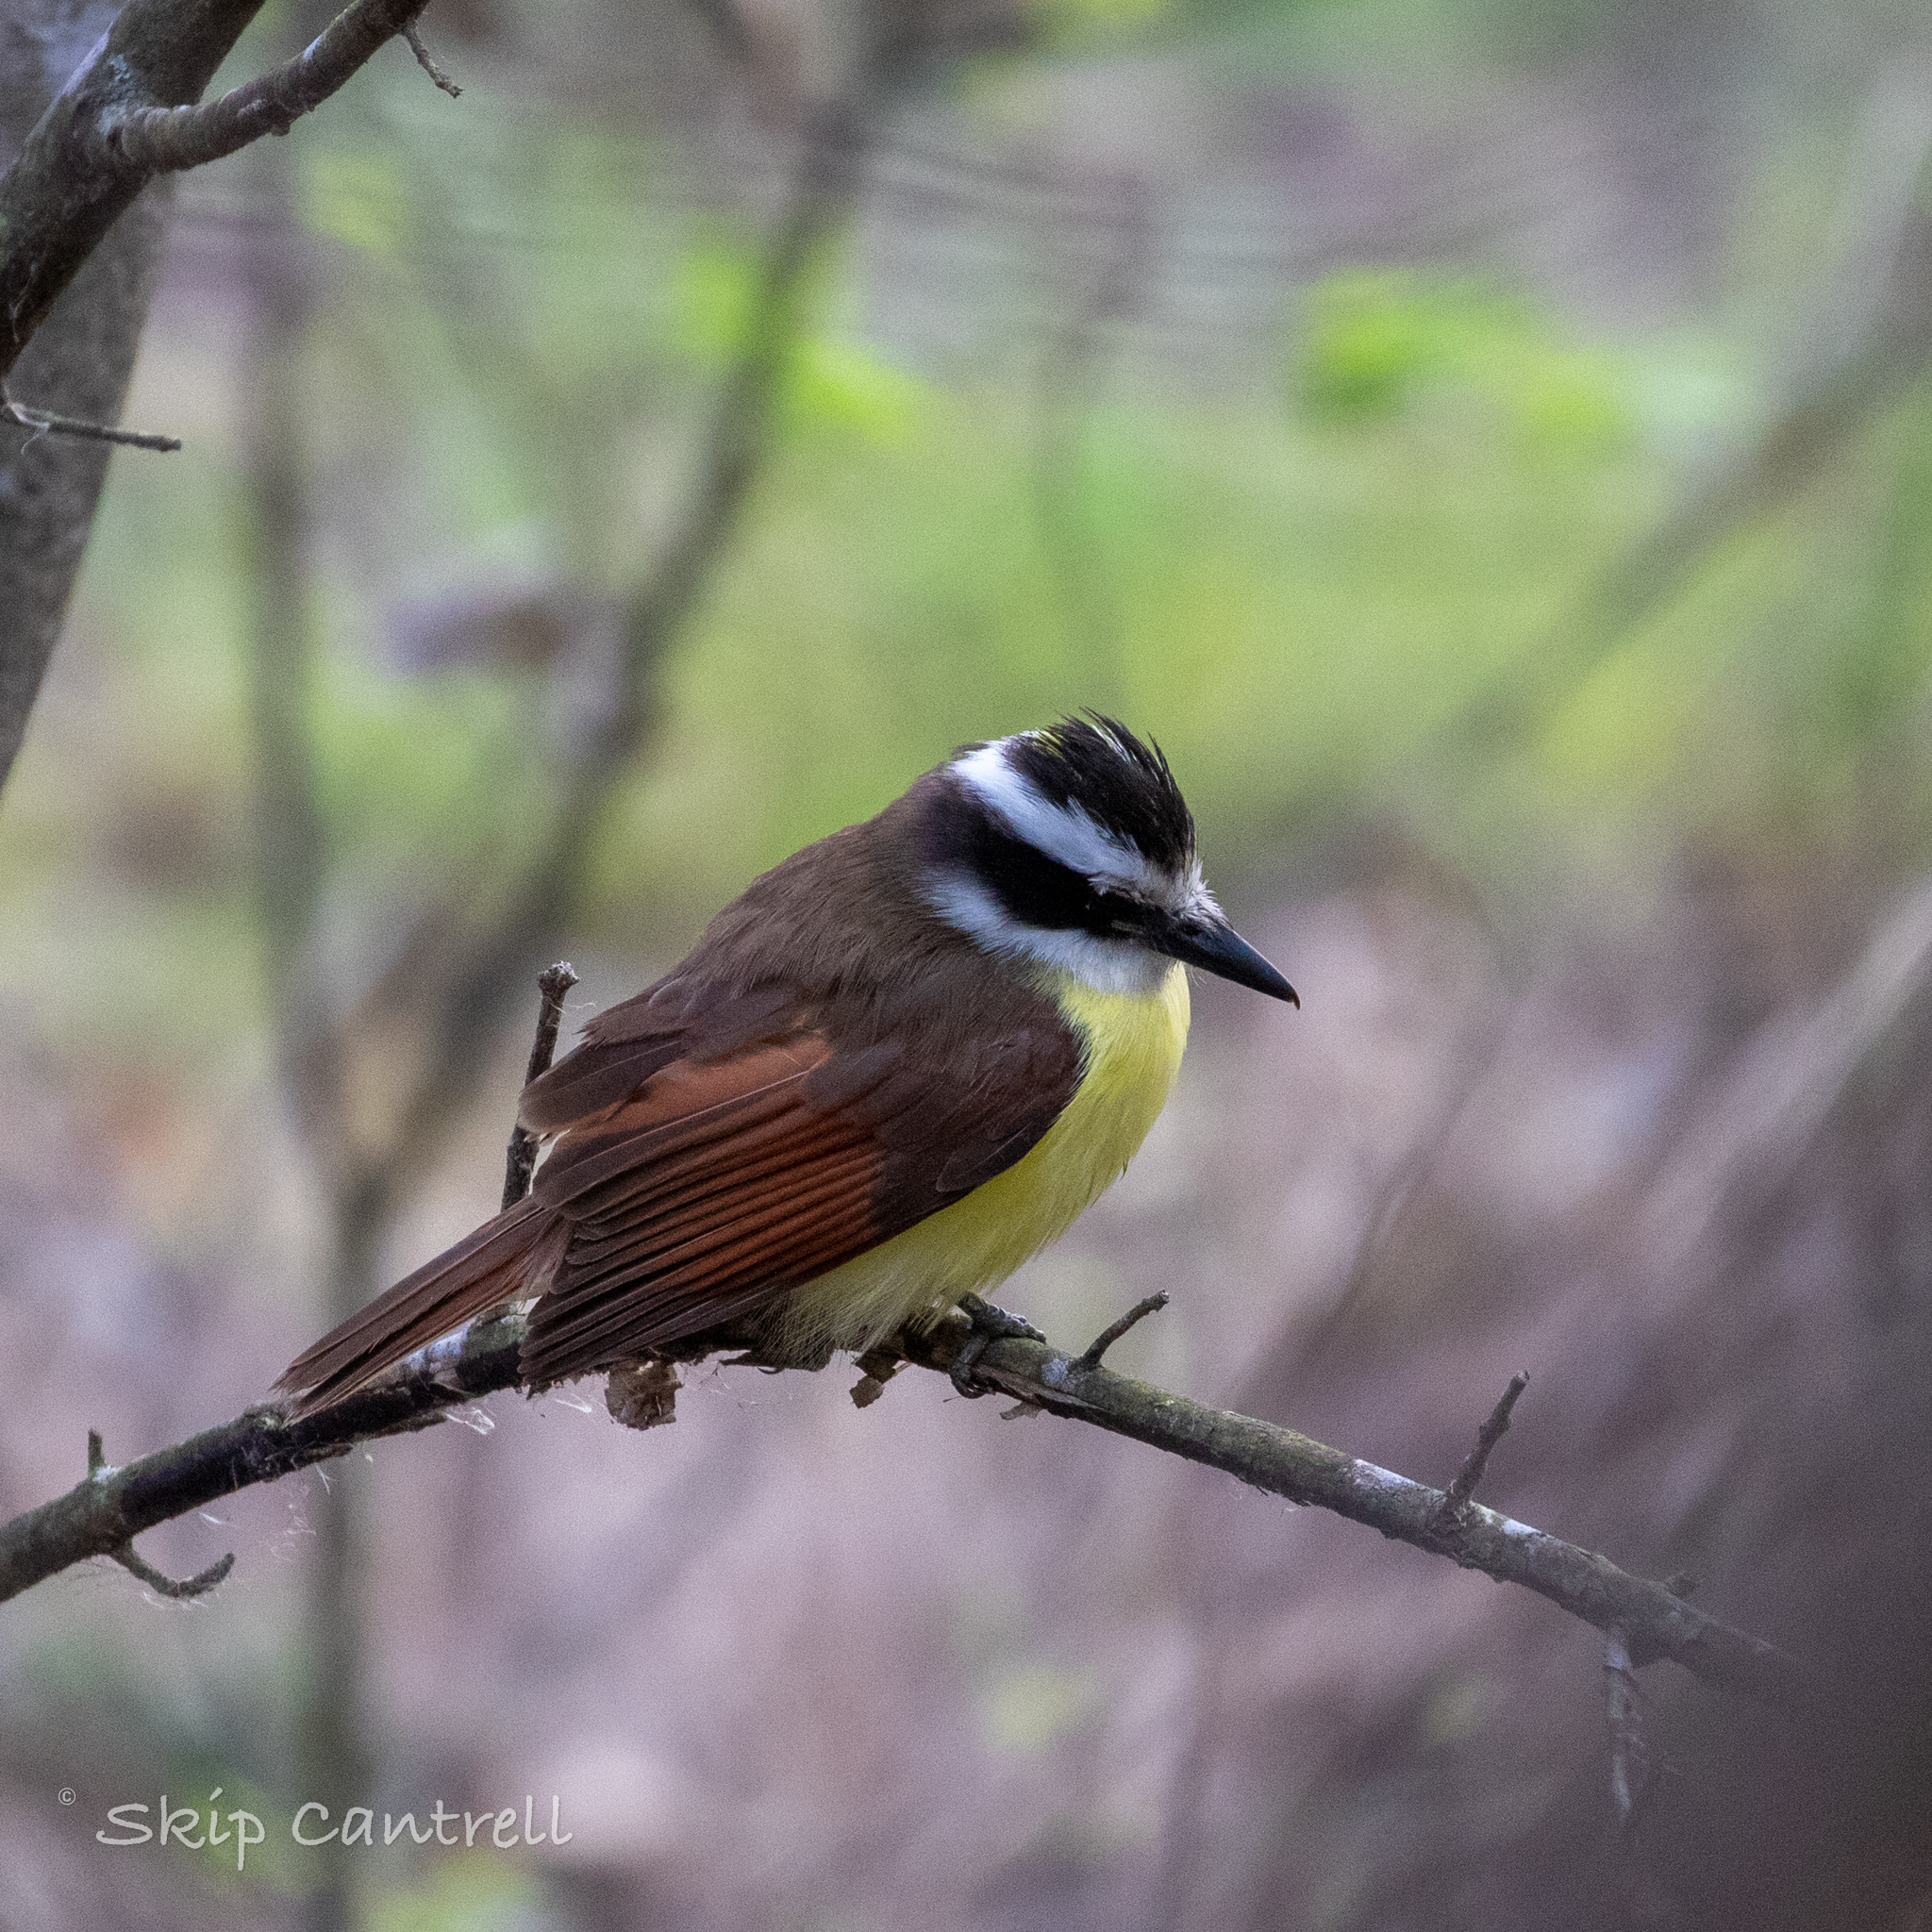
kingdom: Animalia
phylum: Chordata
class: Aves
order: Passeriformes
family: Tyrannidae
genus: Pitangus
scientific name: Pitangus sulphuratus
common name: Great kiskadee
